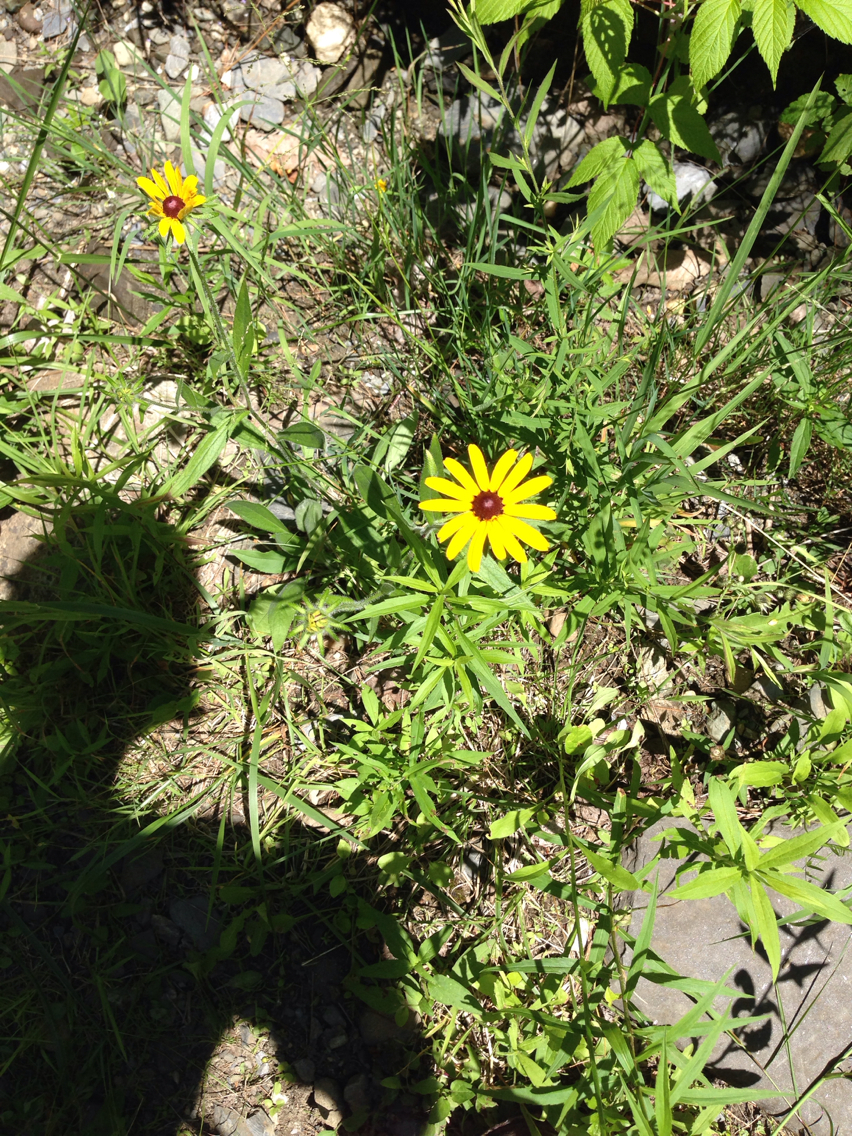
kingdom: Plantae
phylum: Tracheophyta
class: Magnoliopsida
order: Asterales
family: Asteraceae
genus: Rudbeckia
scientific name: Rudbeckia hirta
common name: Black-eyed-susan
